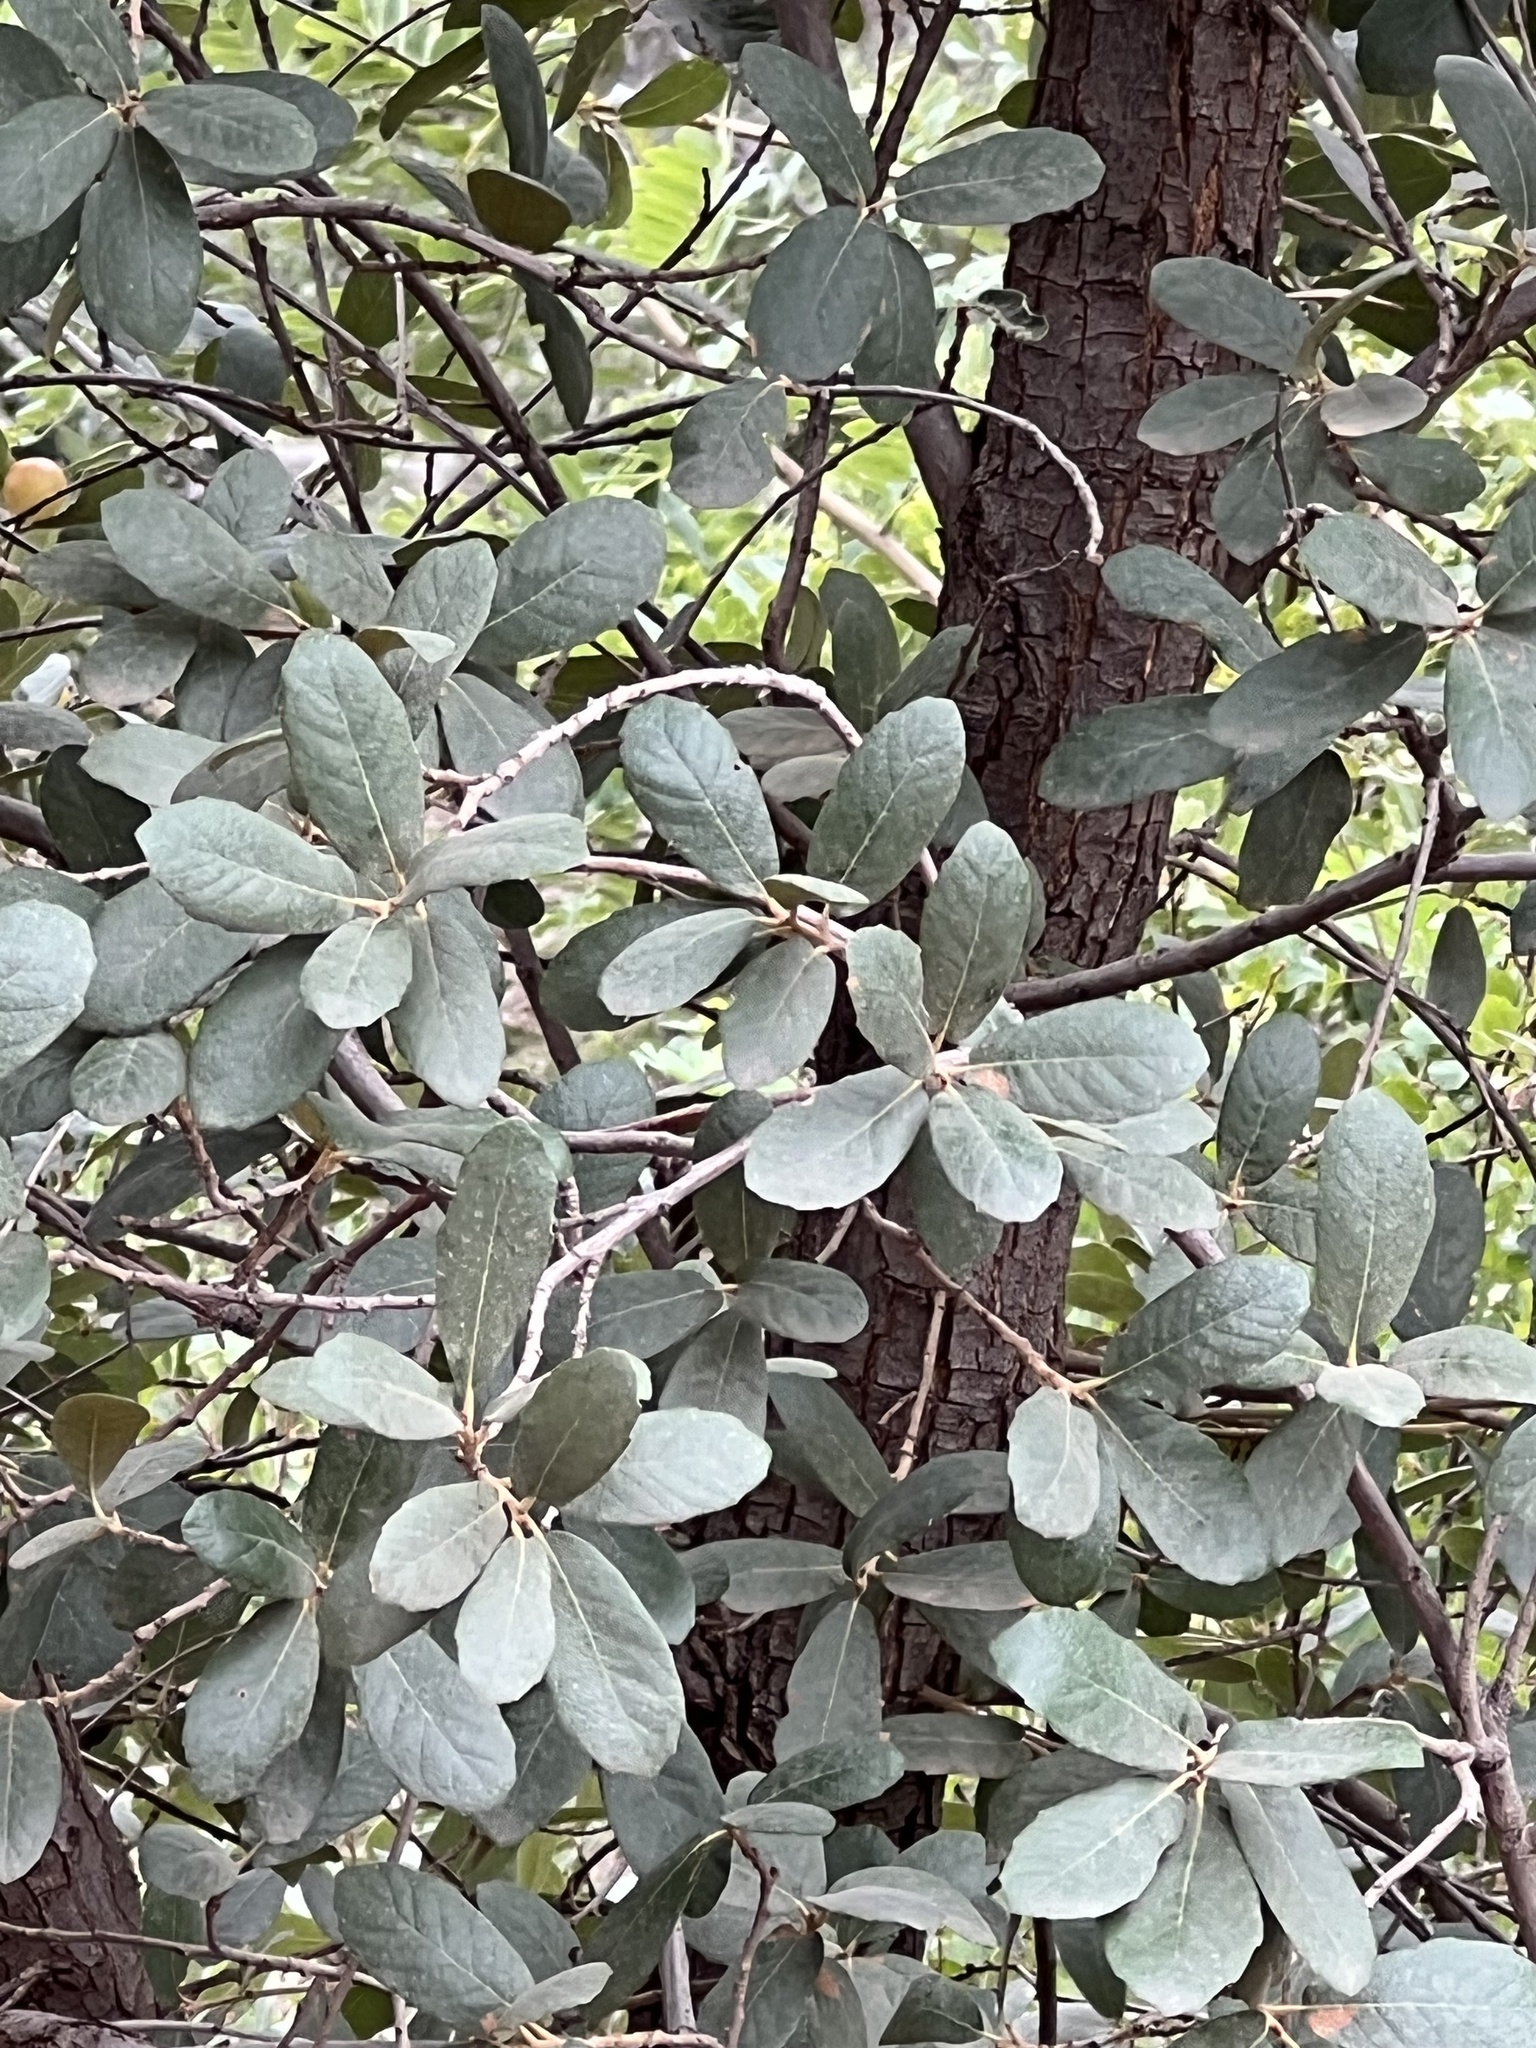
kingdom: Plantae
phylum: Tracheophyta
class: Magnoliopsida
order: Fagales
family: Fagaceae
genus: Quercus
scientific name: Quercus oblongifolia
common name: Mexican blue oak
